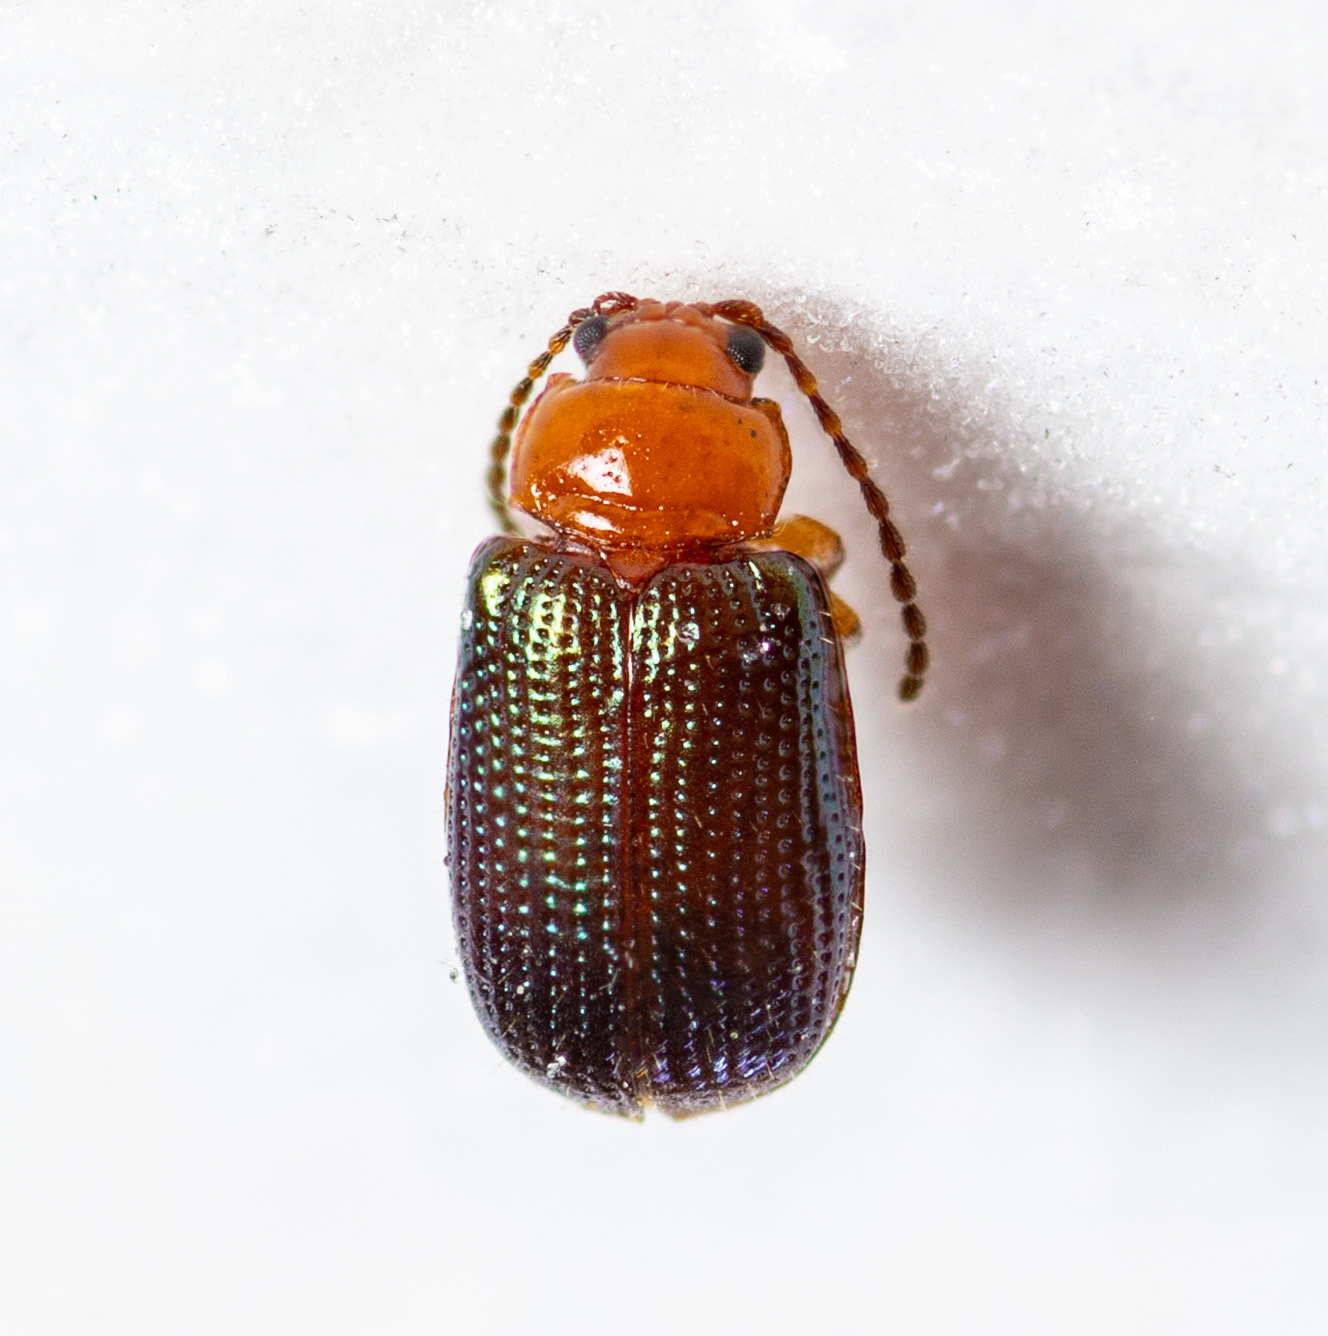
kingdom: Animalia
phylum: Arthropoda
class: Insecta
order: Coleoptera
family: Chrysomelidae
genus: Trichaltica
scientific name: Trichaltica scabricula
